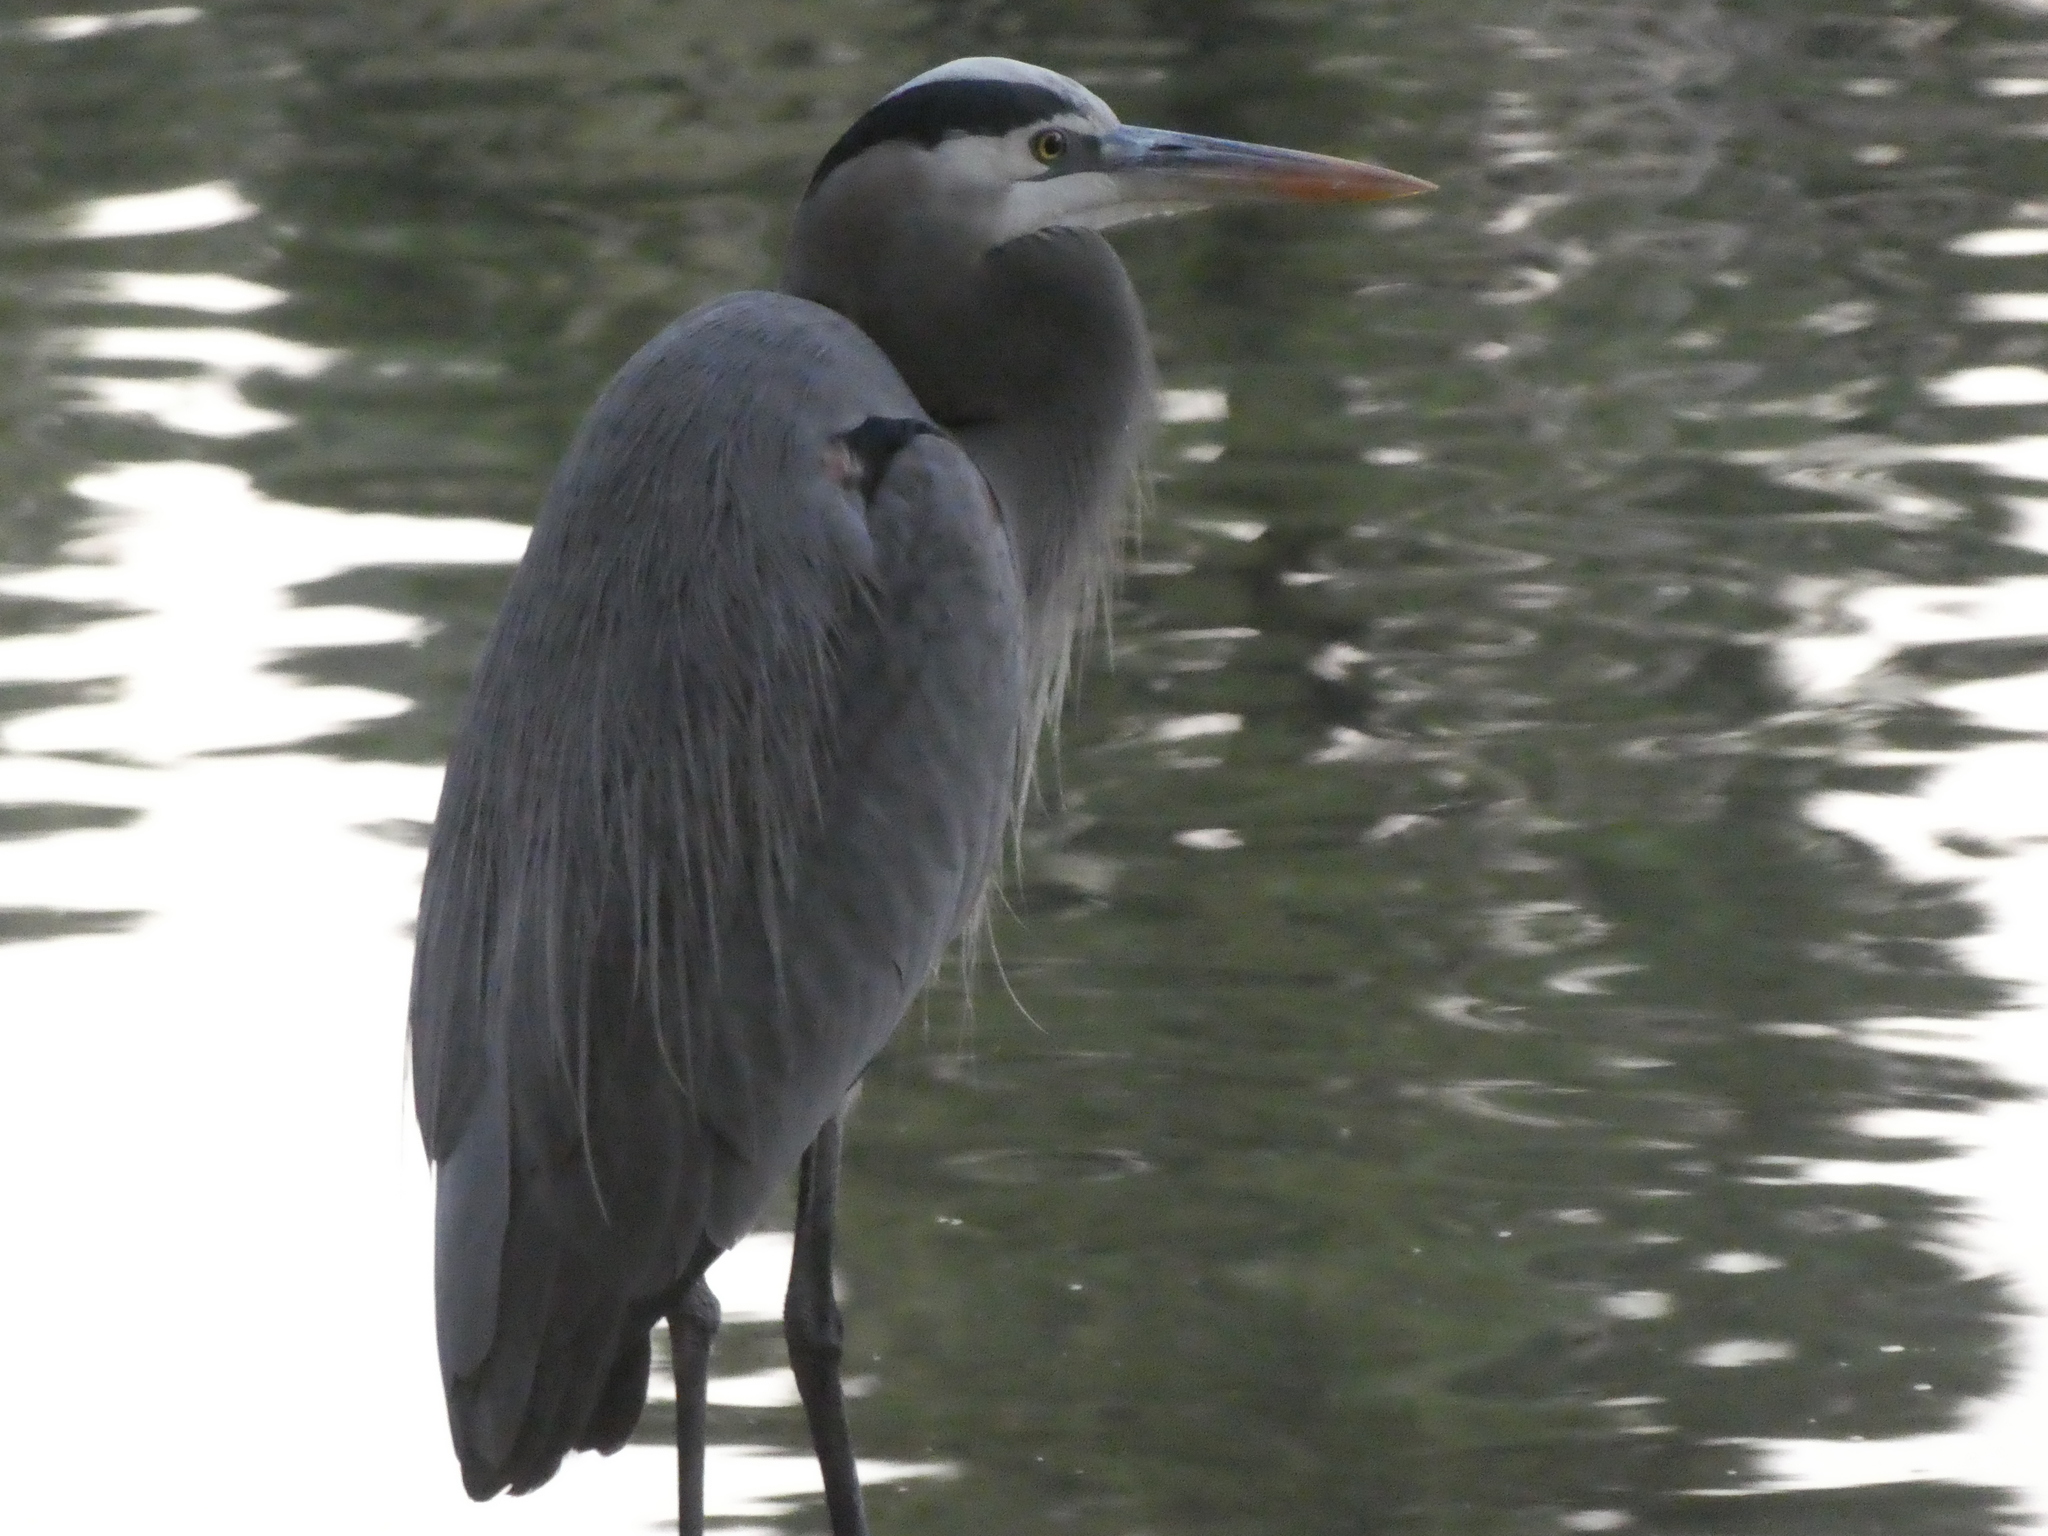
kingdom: Animalia
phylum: Chordata
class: Aves
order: Pelecaniformes
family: Ardeidae
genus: Ardea
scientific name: Ardea herodias
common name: Great blue heron
